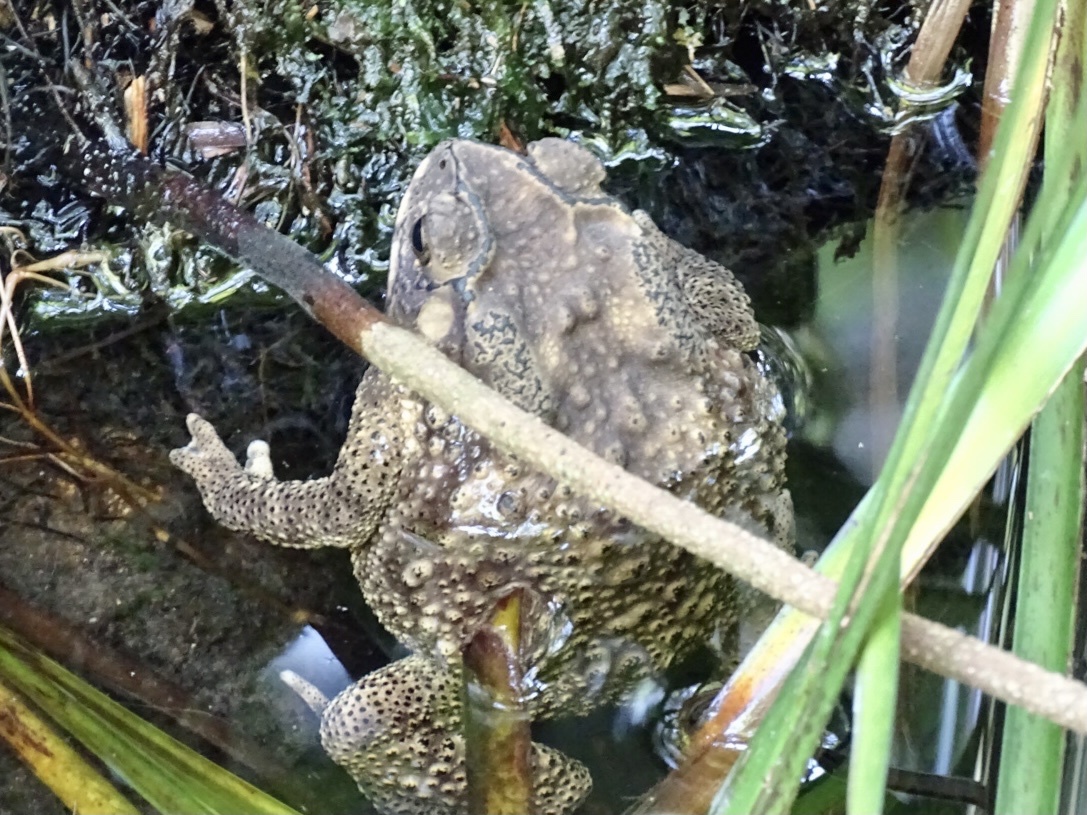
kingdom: Animalia
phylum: Chordata
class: Amphibia
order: Anura
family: Bufonidae
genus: Duttaphrynus
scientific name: Duttaphrynus melanostictus
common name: Common sunda toad
